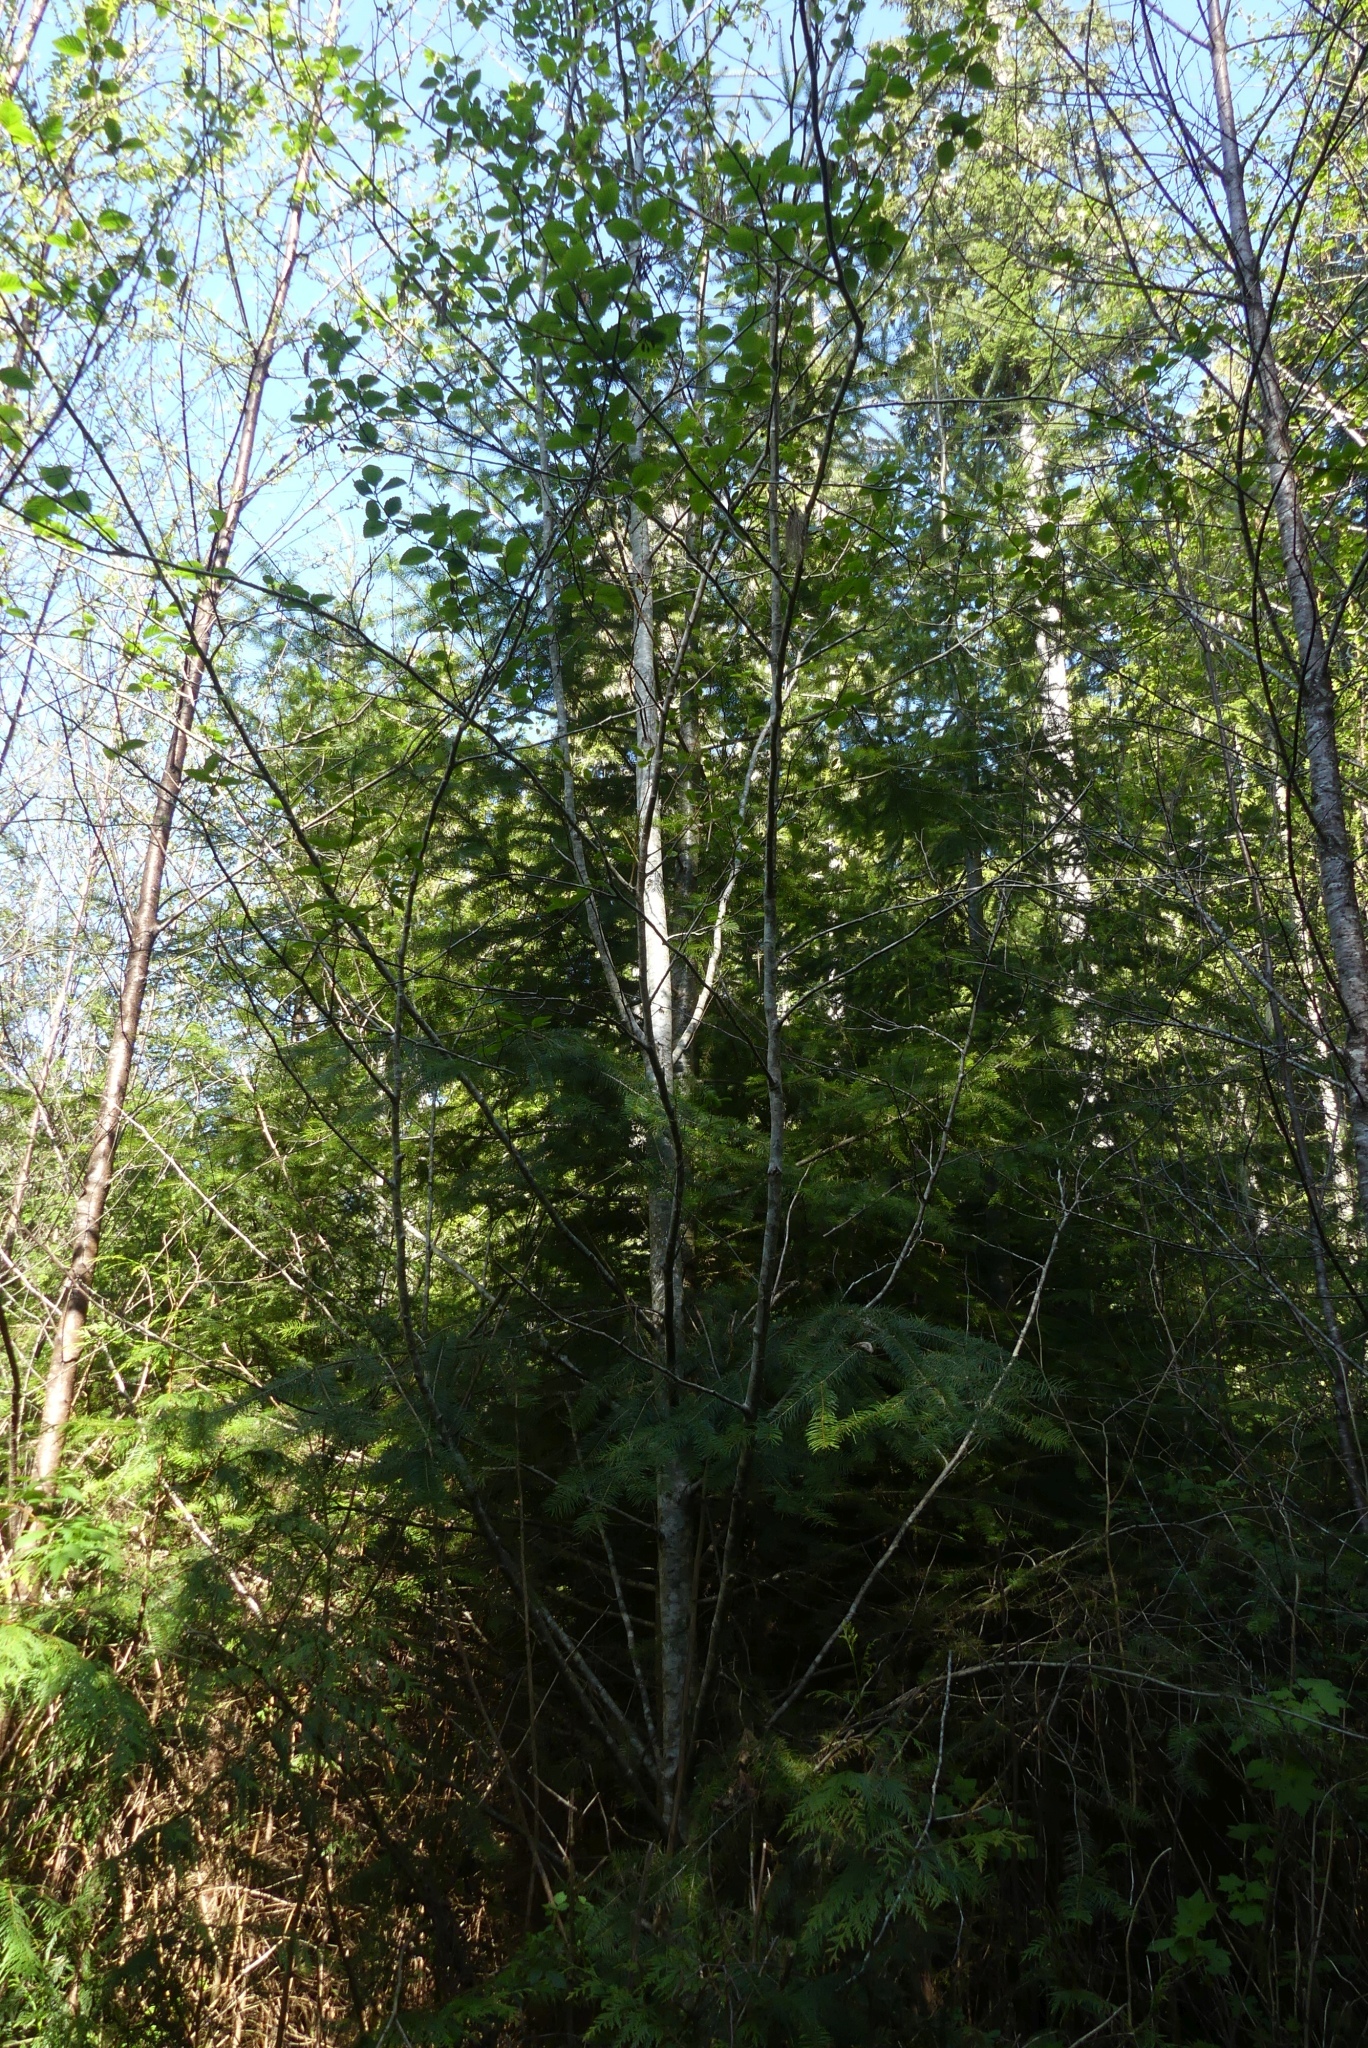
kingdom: Plantae
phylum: Tracheophyta
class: Magnoliopsida
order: Fagales
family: Betulaceae
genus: Alnus
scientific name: Alnus rubra
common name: Red alder
